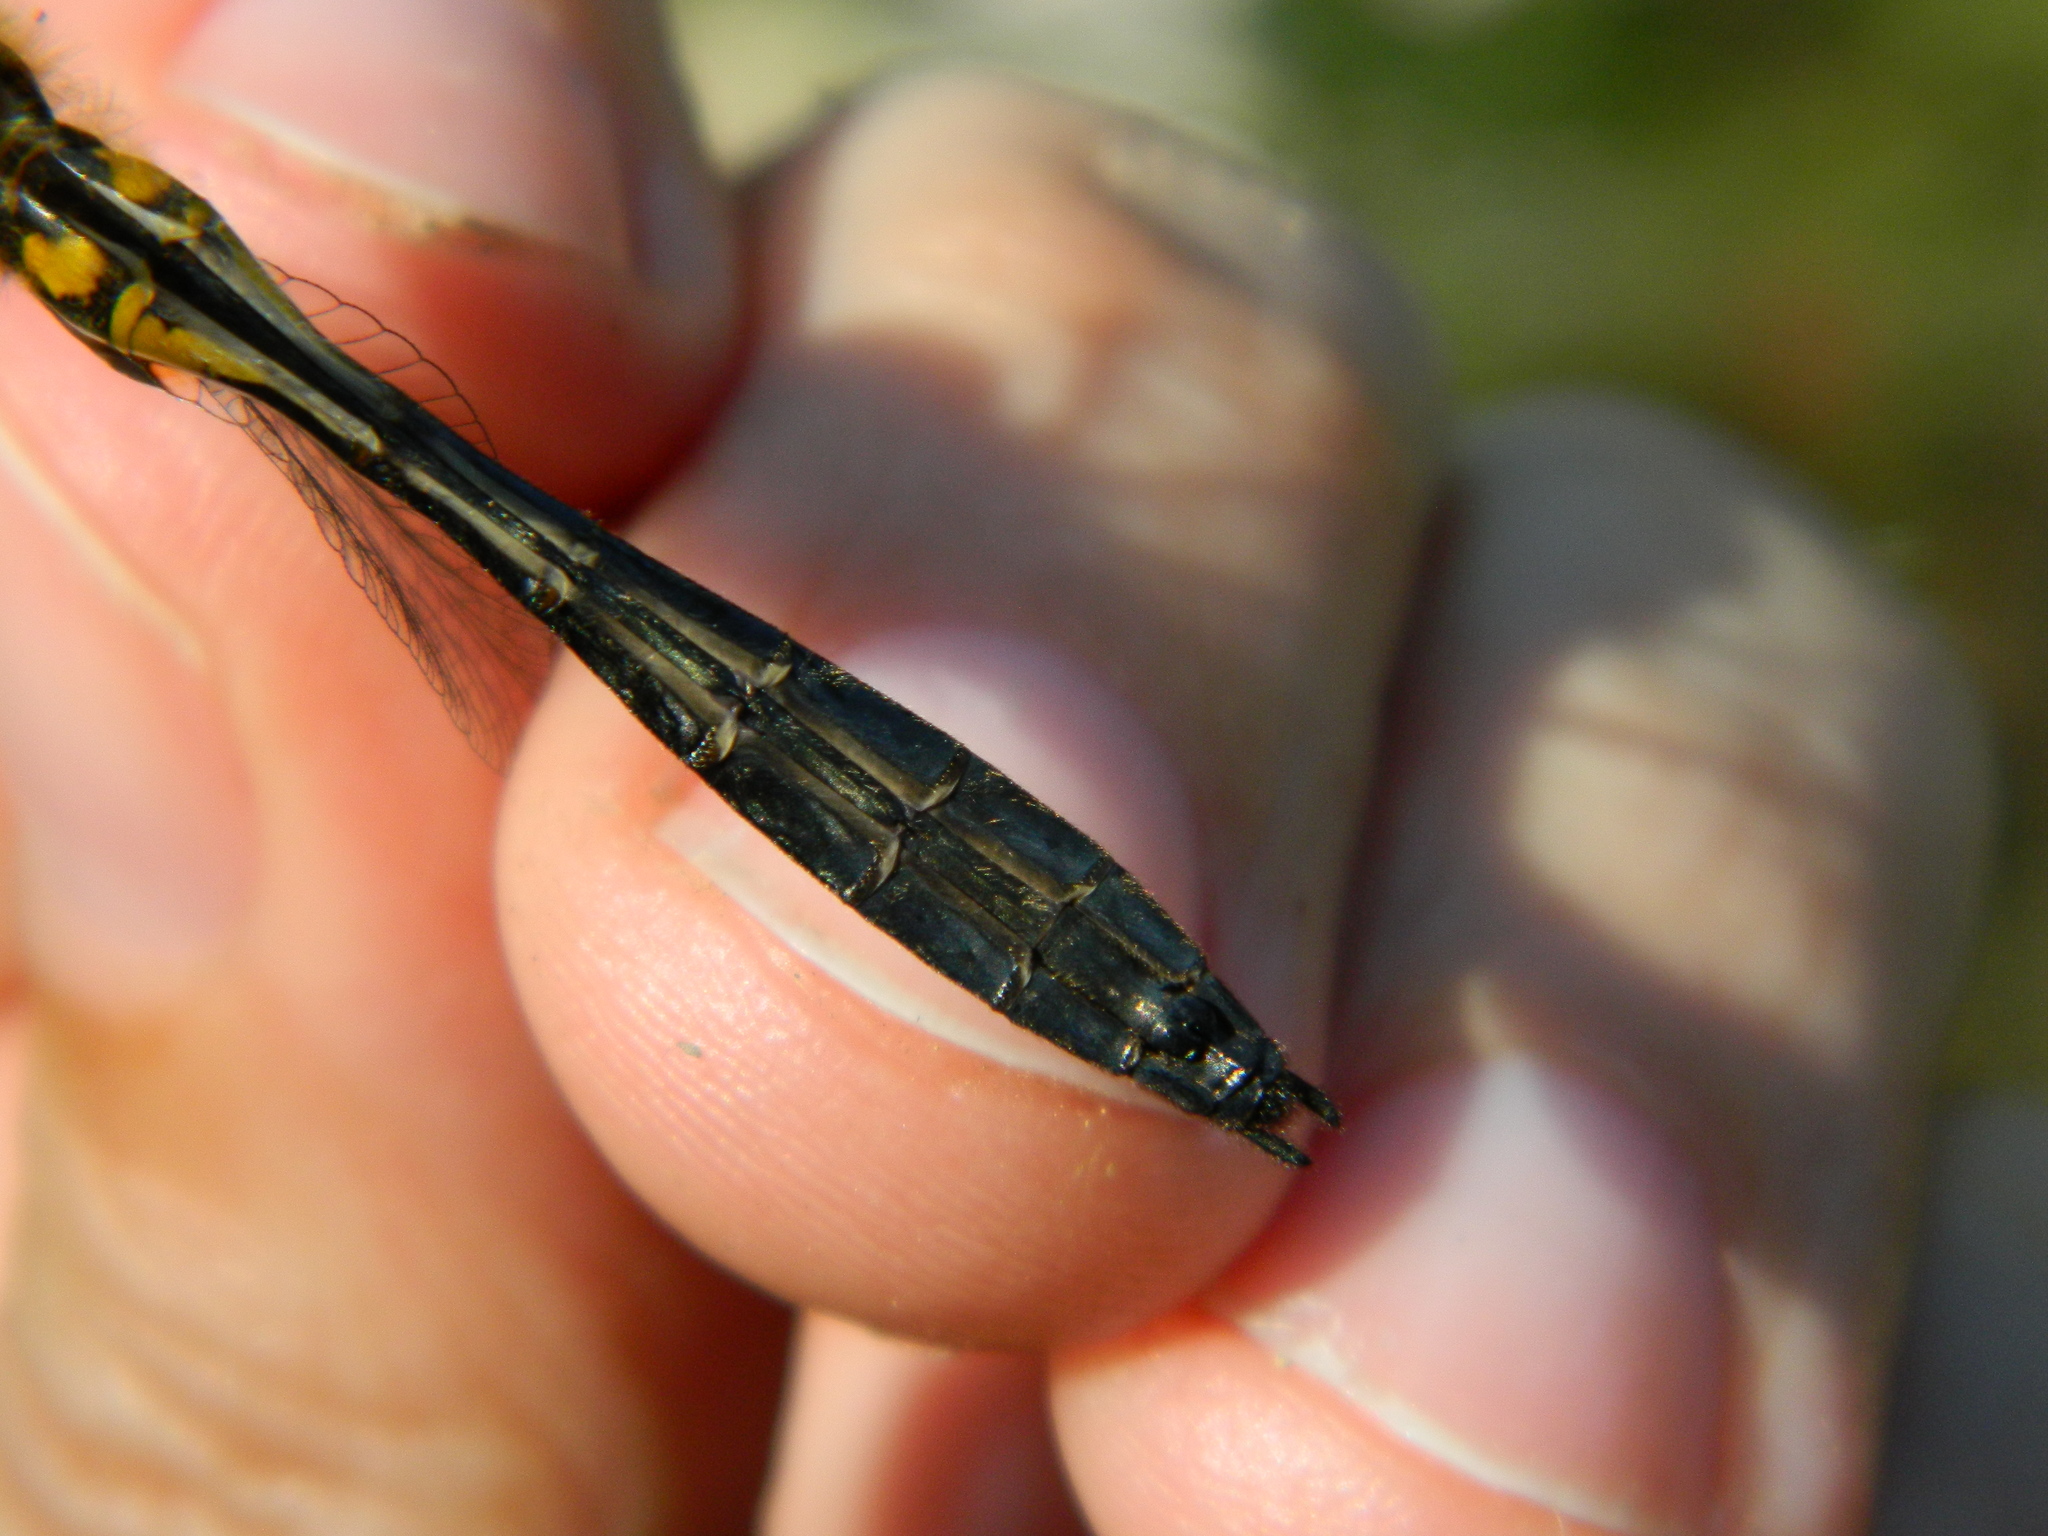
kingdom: Animalia
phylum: Arthropoda
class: Insecta
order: Odonata
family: Corduliidae
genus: Dorocordulia
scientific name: Dorocordulia libera
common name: Racket-tailed emerald
